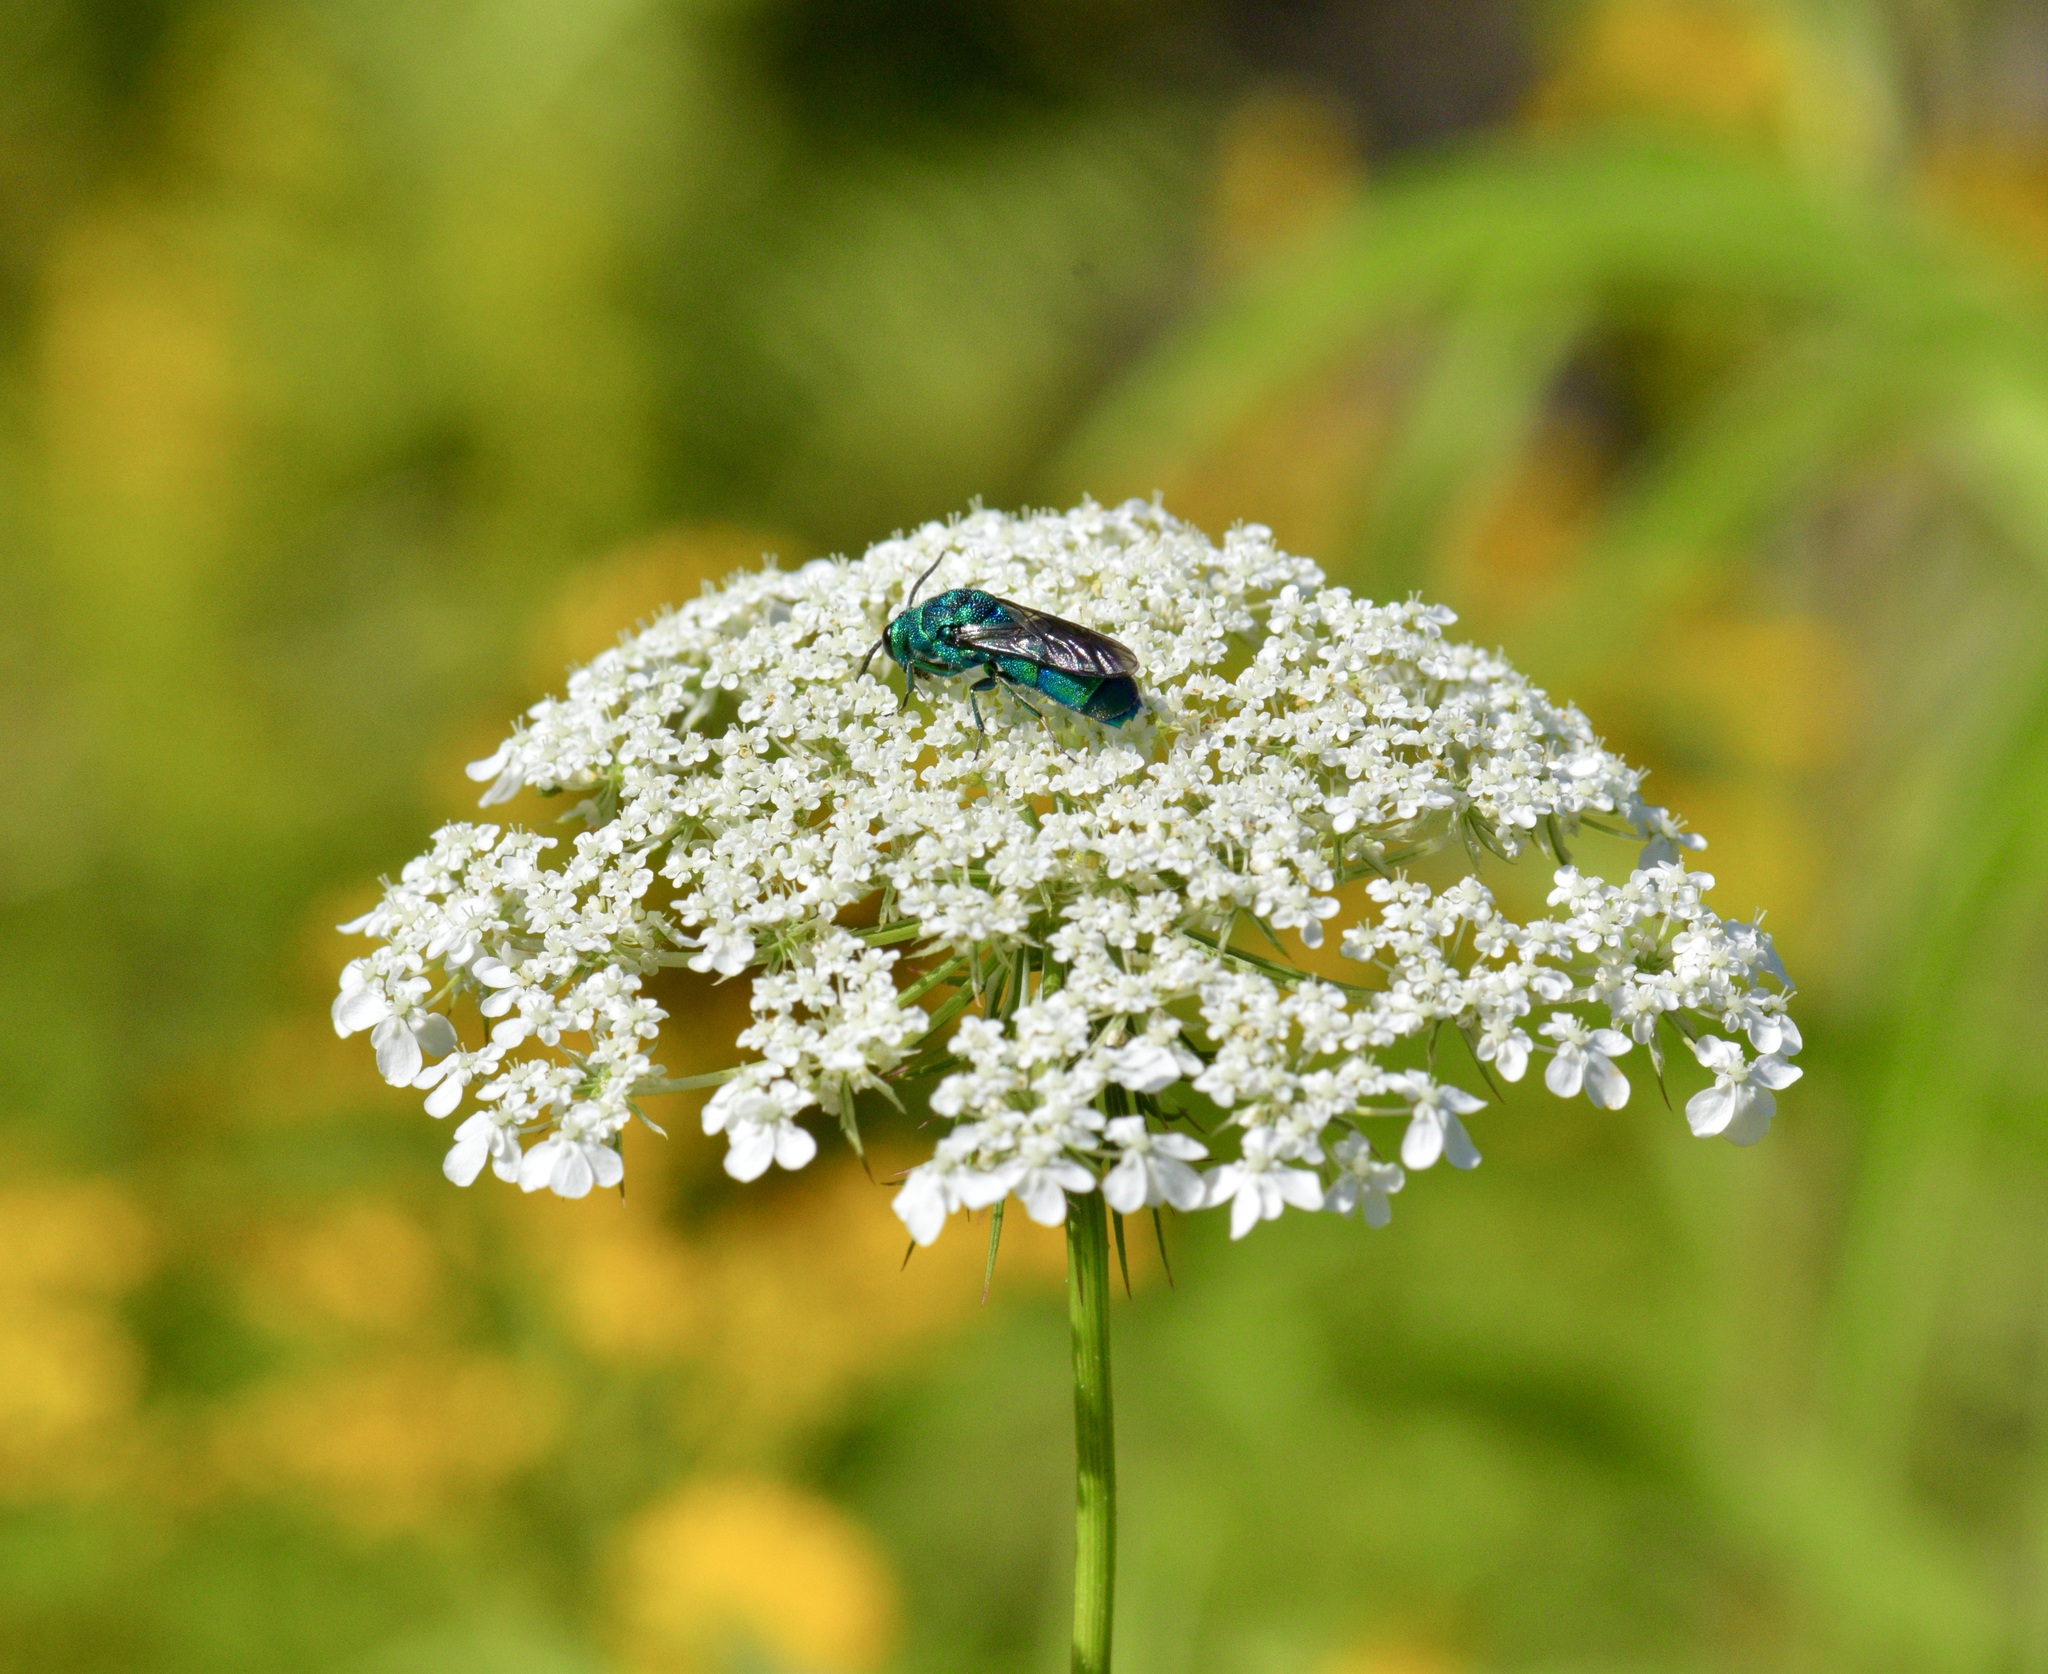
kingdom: Animalia
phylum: Arthropoda
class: Insecta
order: Hymenoptera
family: Chrysididae
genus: Chrysis
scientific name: Chrysis
